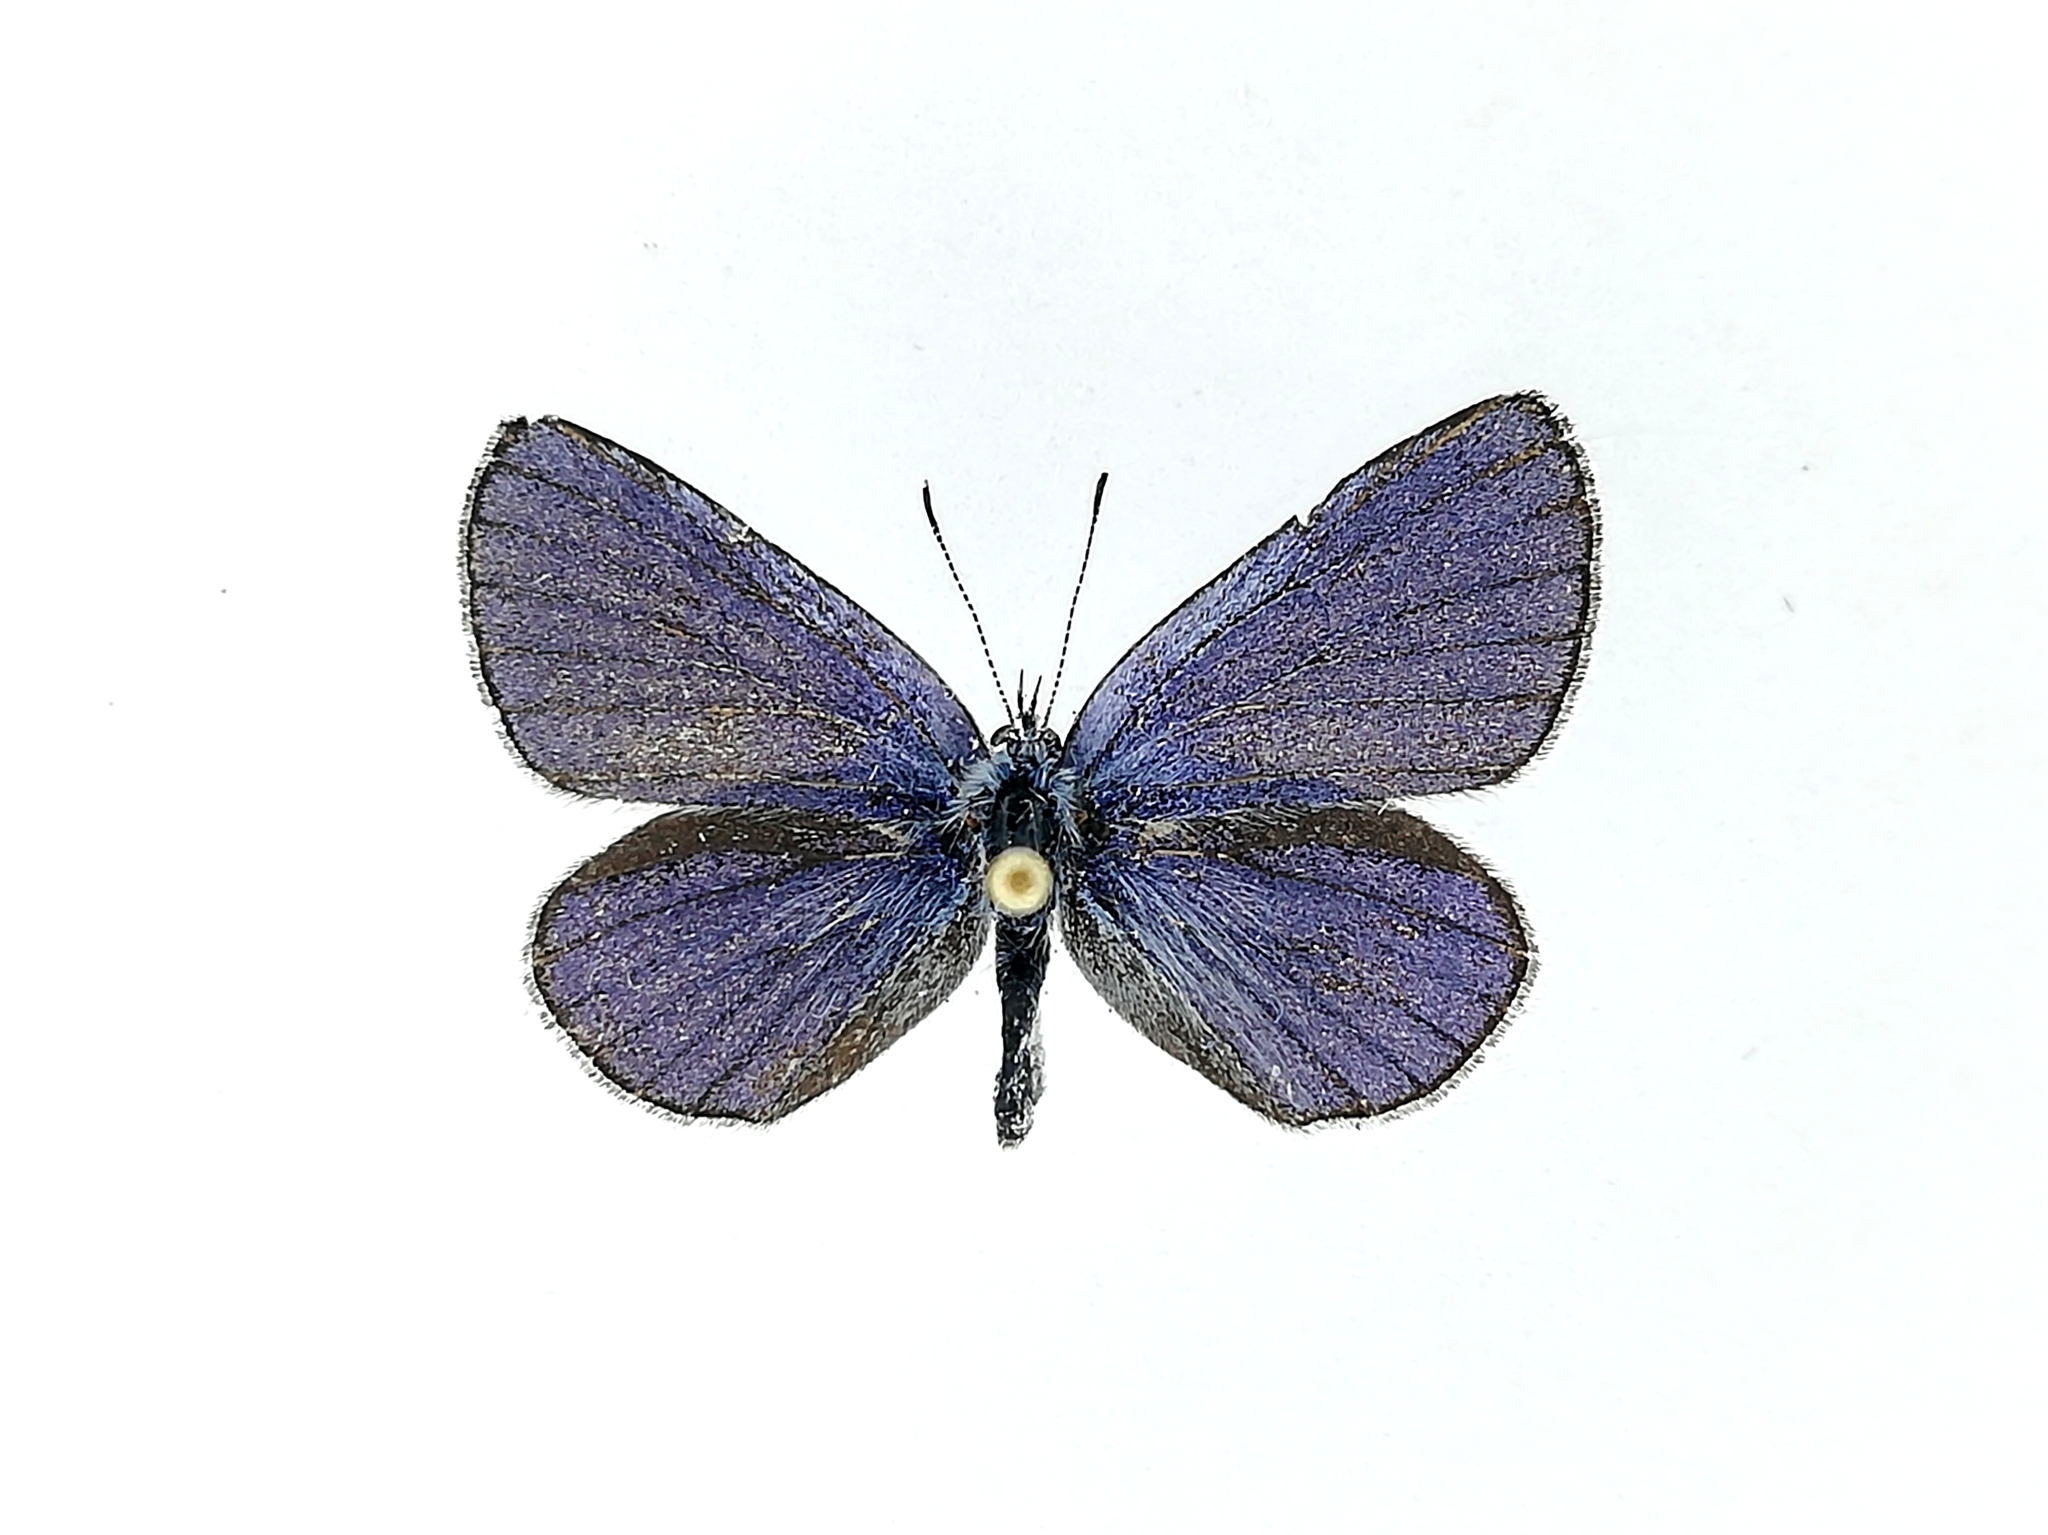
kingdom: Animalia
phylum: Arthropoda
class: Insecta
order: Lepidoptera
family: Lycaenidae
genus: Everes
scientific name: Everes sebrus
